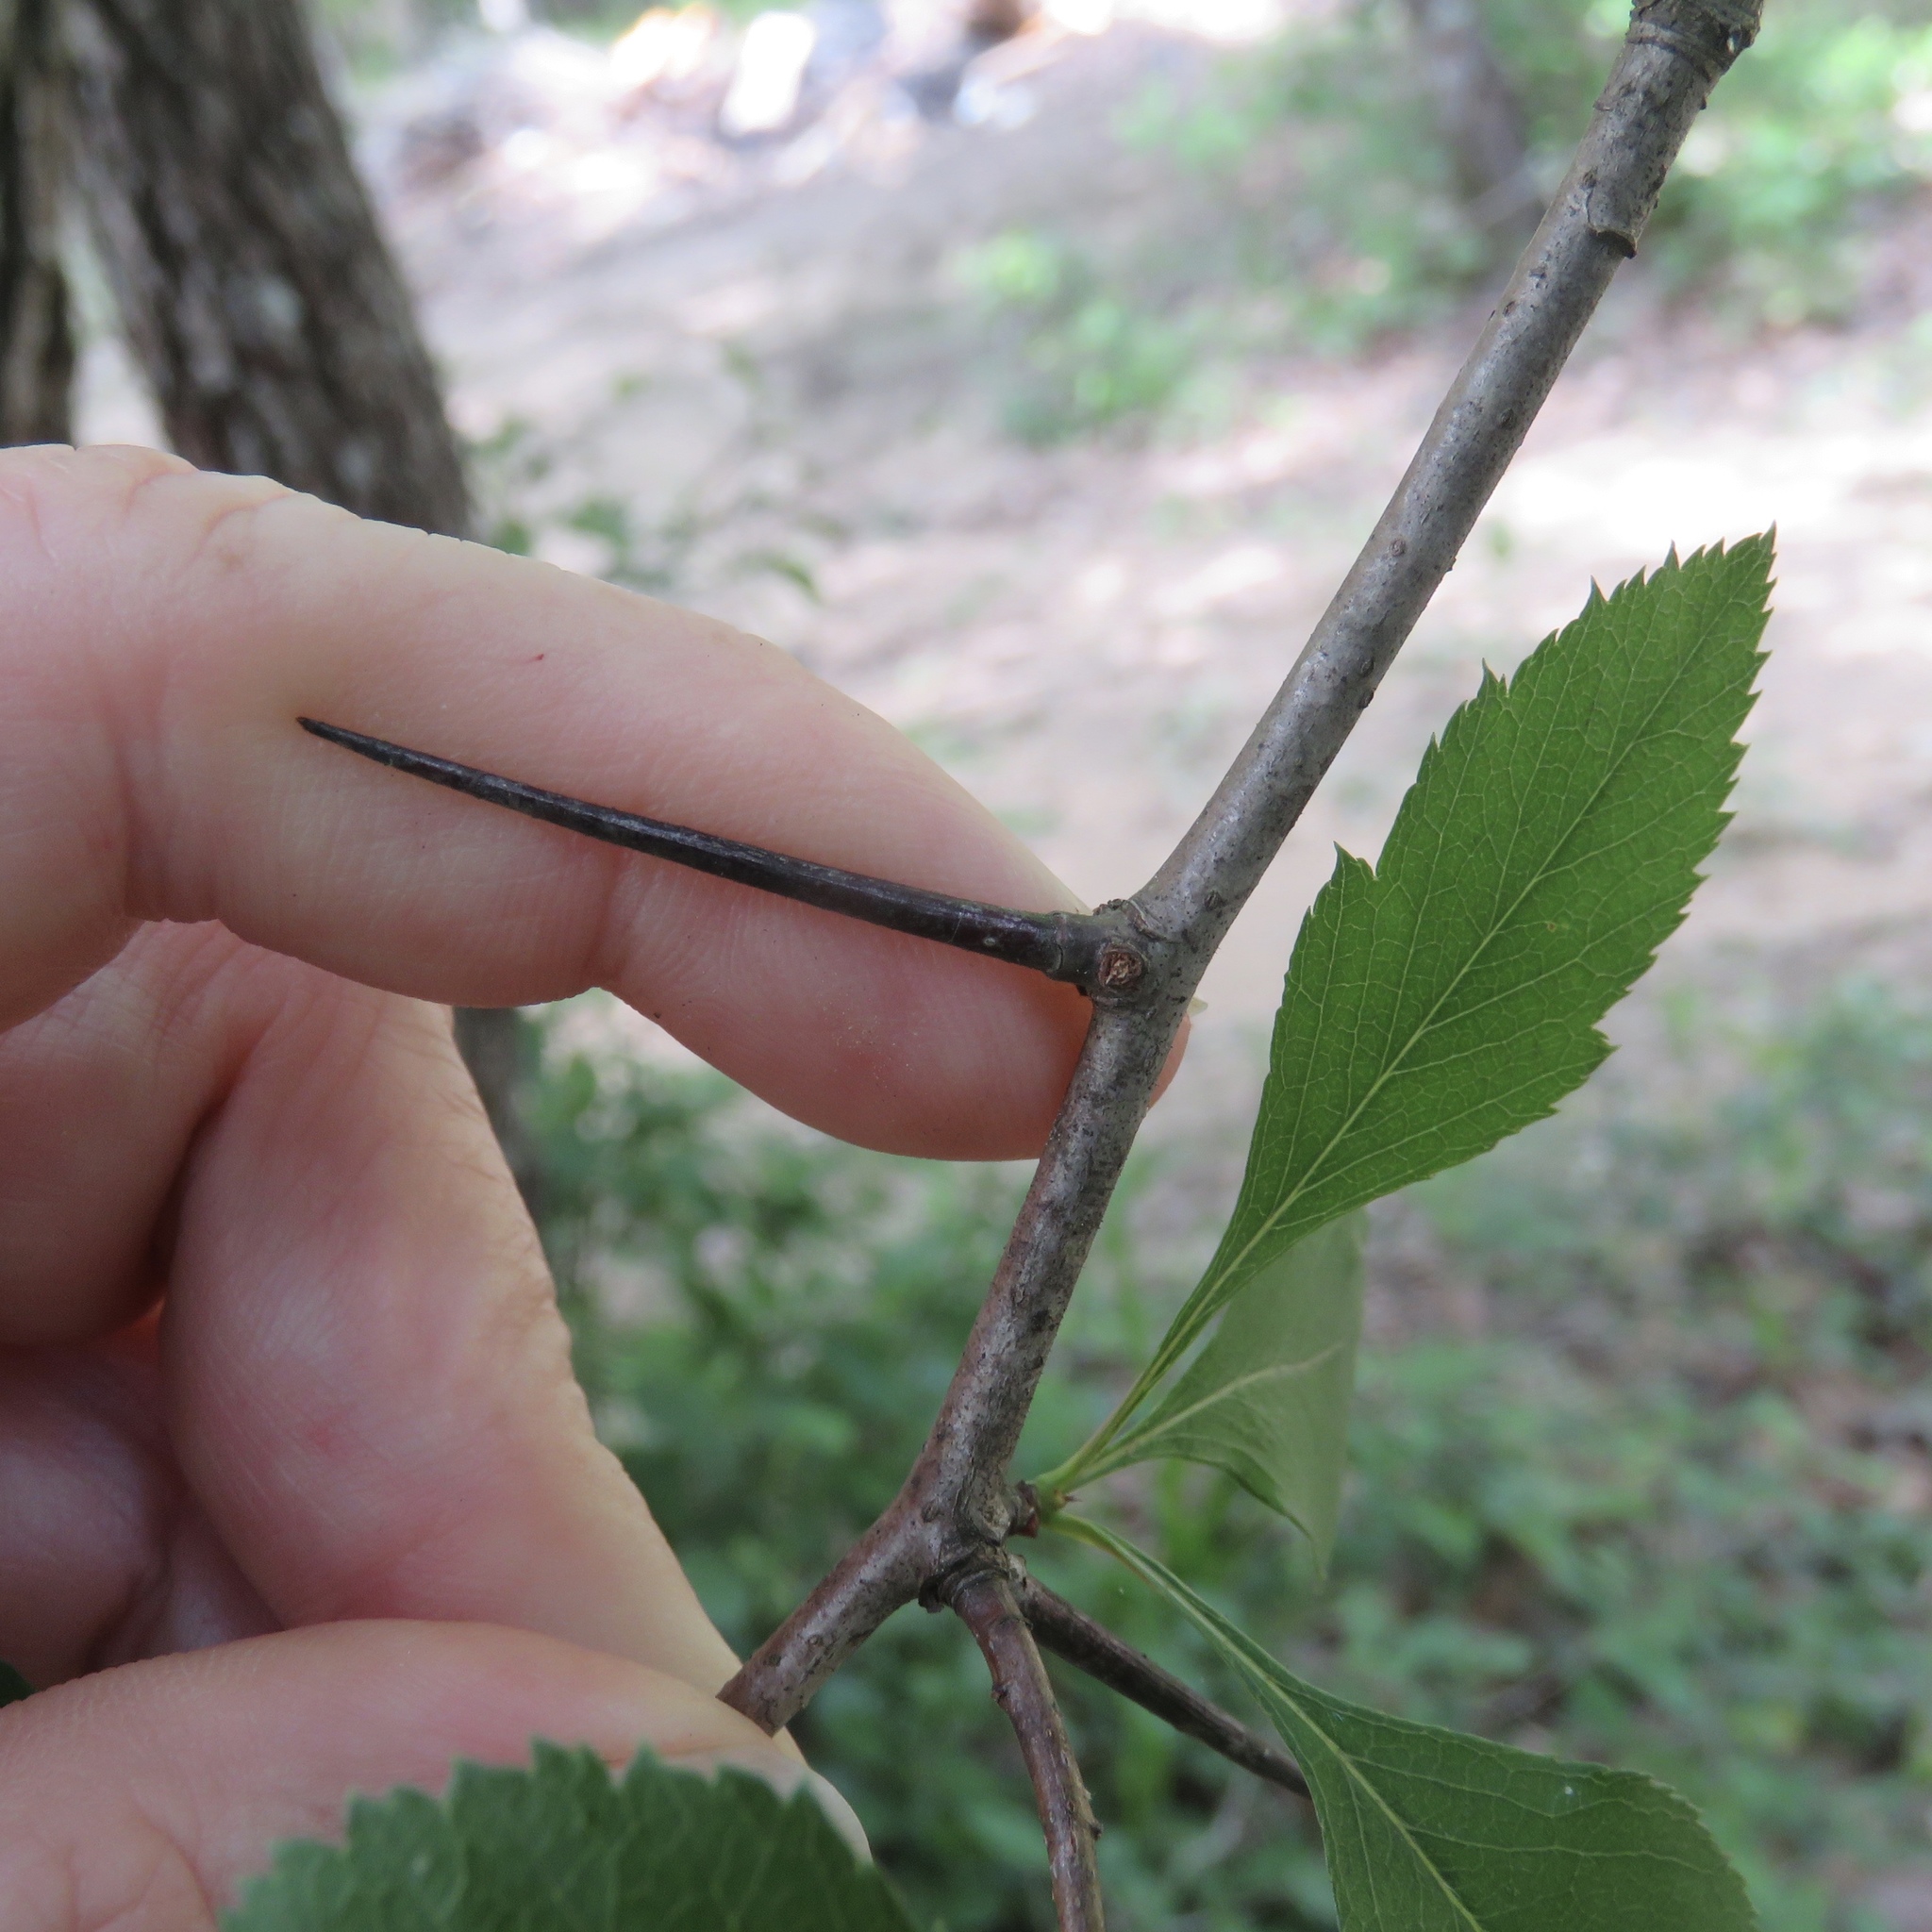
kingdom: Plantae
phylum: Tracheophyta
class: Magnoliopsida
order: Rosales
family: Rosaceae
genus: Crataegus
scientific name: Crataegus mollis
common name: Downy hawthorn
